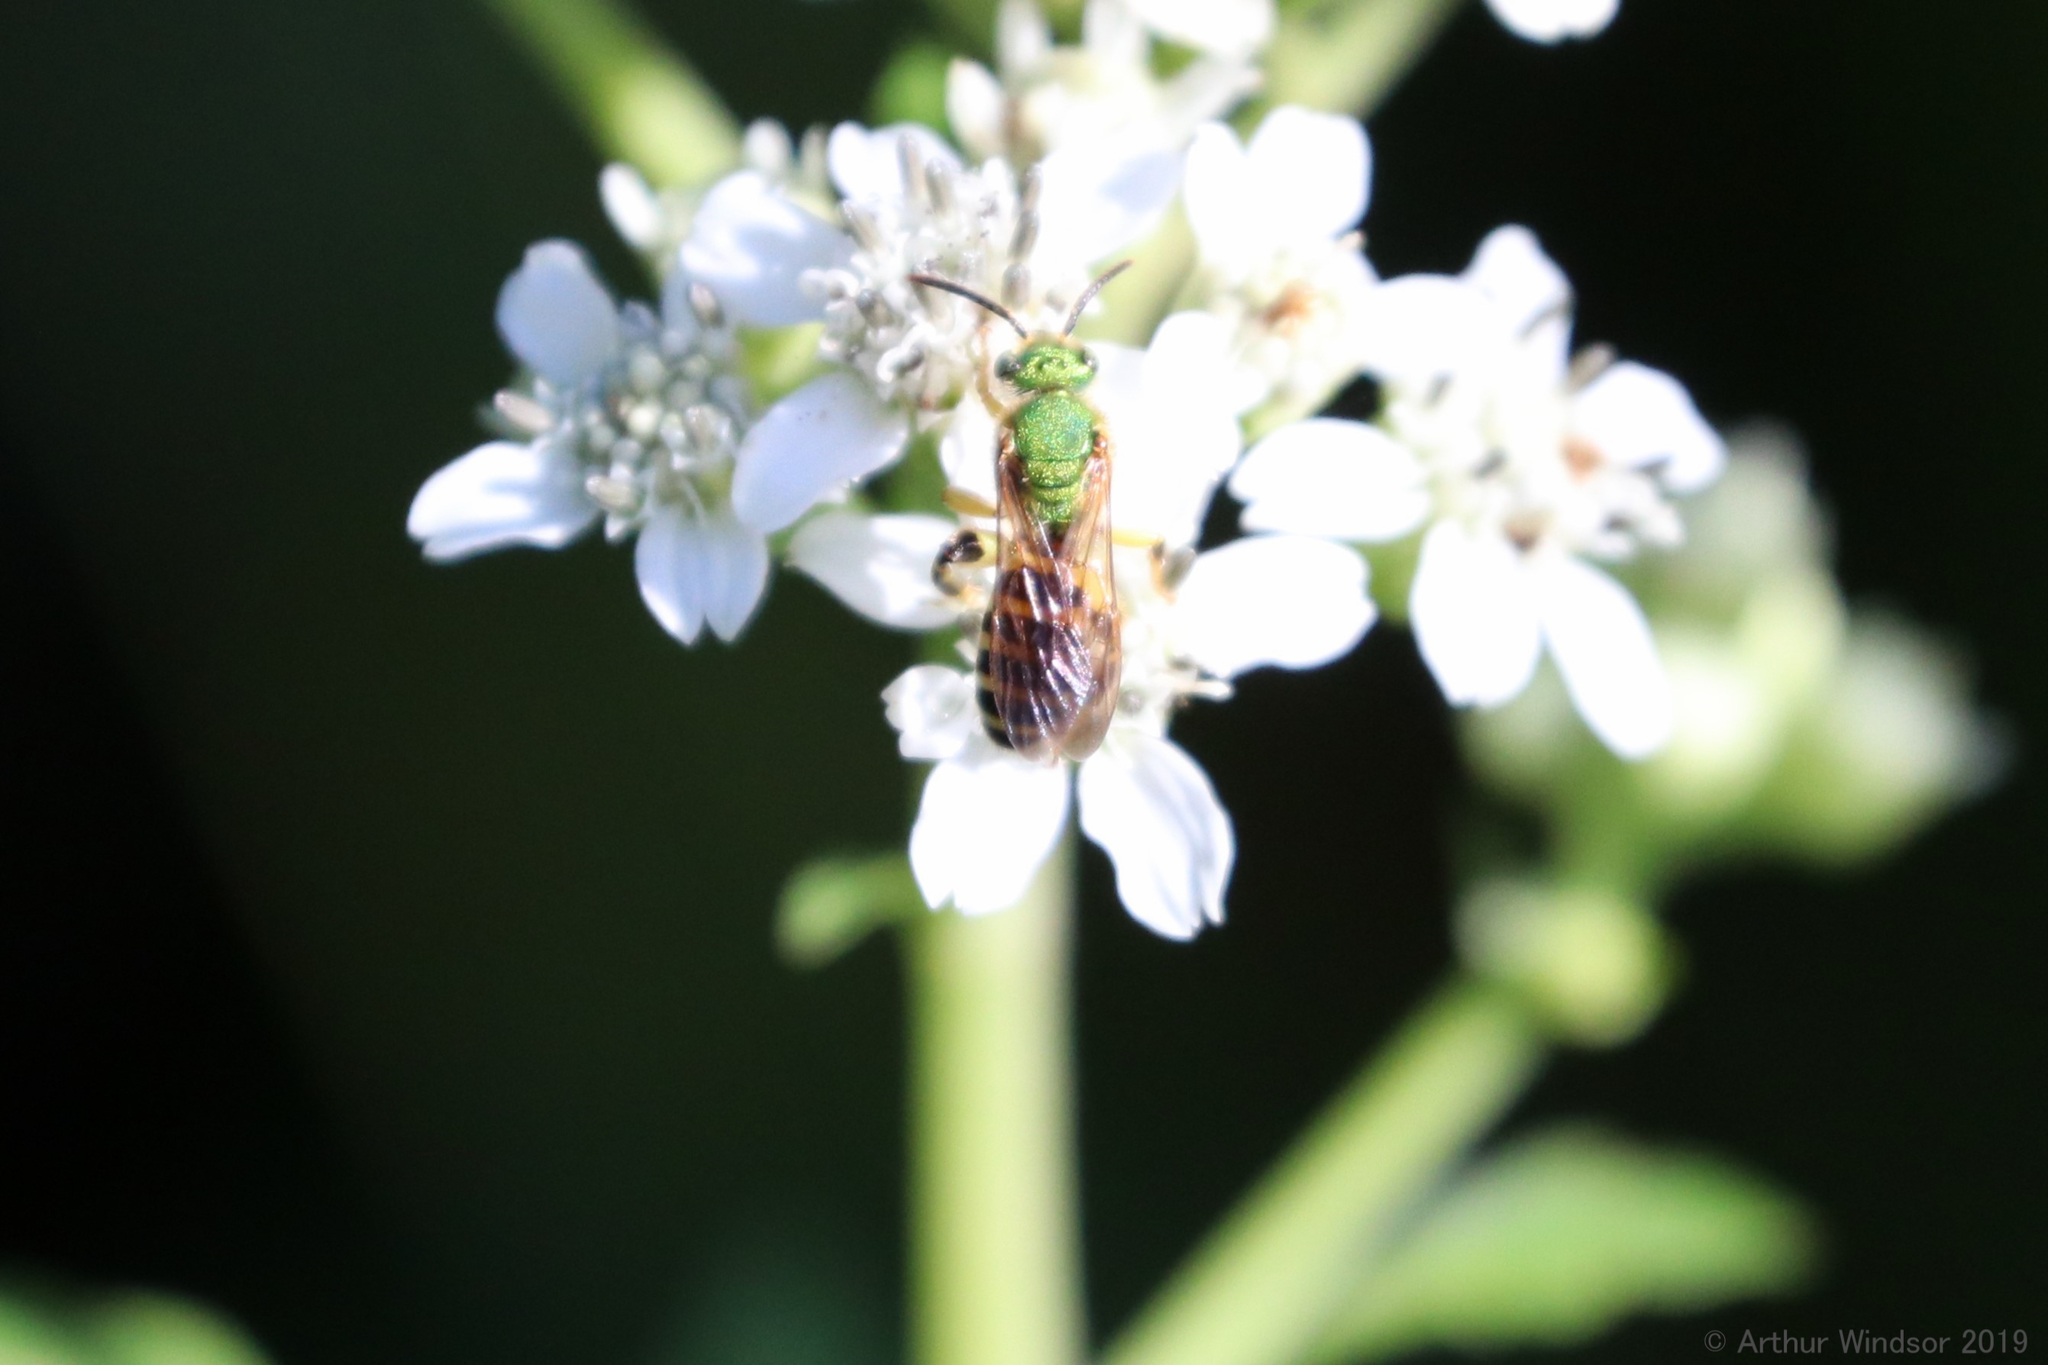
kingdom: Animalia
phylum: Arthropoda
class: Insecta
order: Hymenoptera
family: Halictidae
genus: Agapostemon
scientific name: Agapostemon splendens
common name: Brown-winged striped sweat bee
